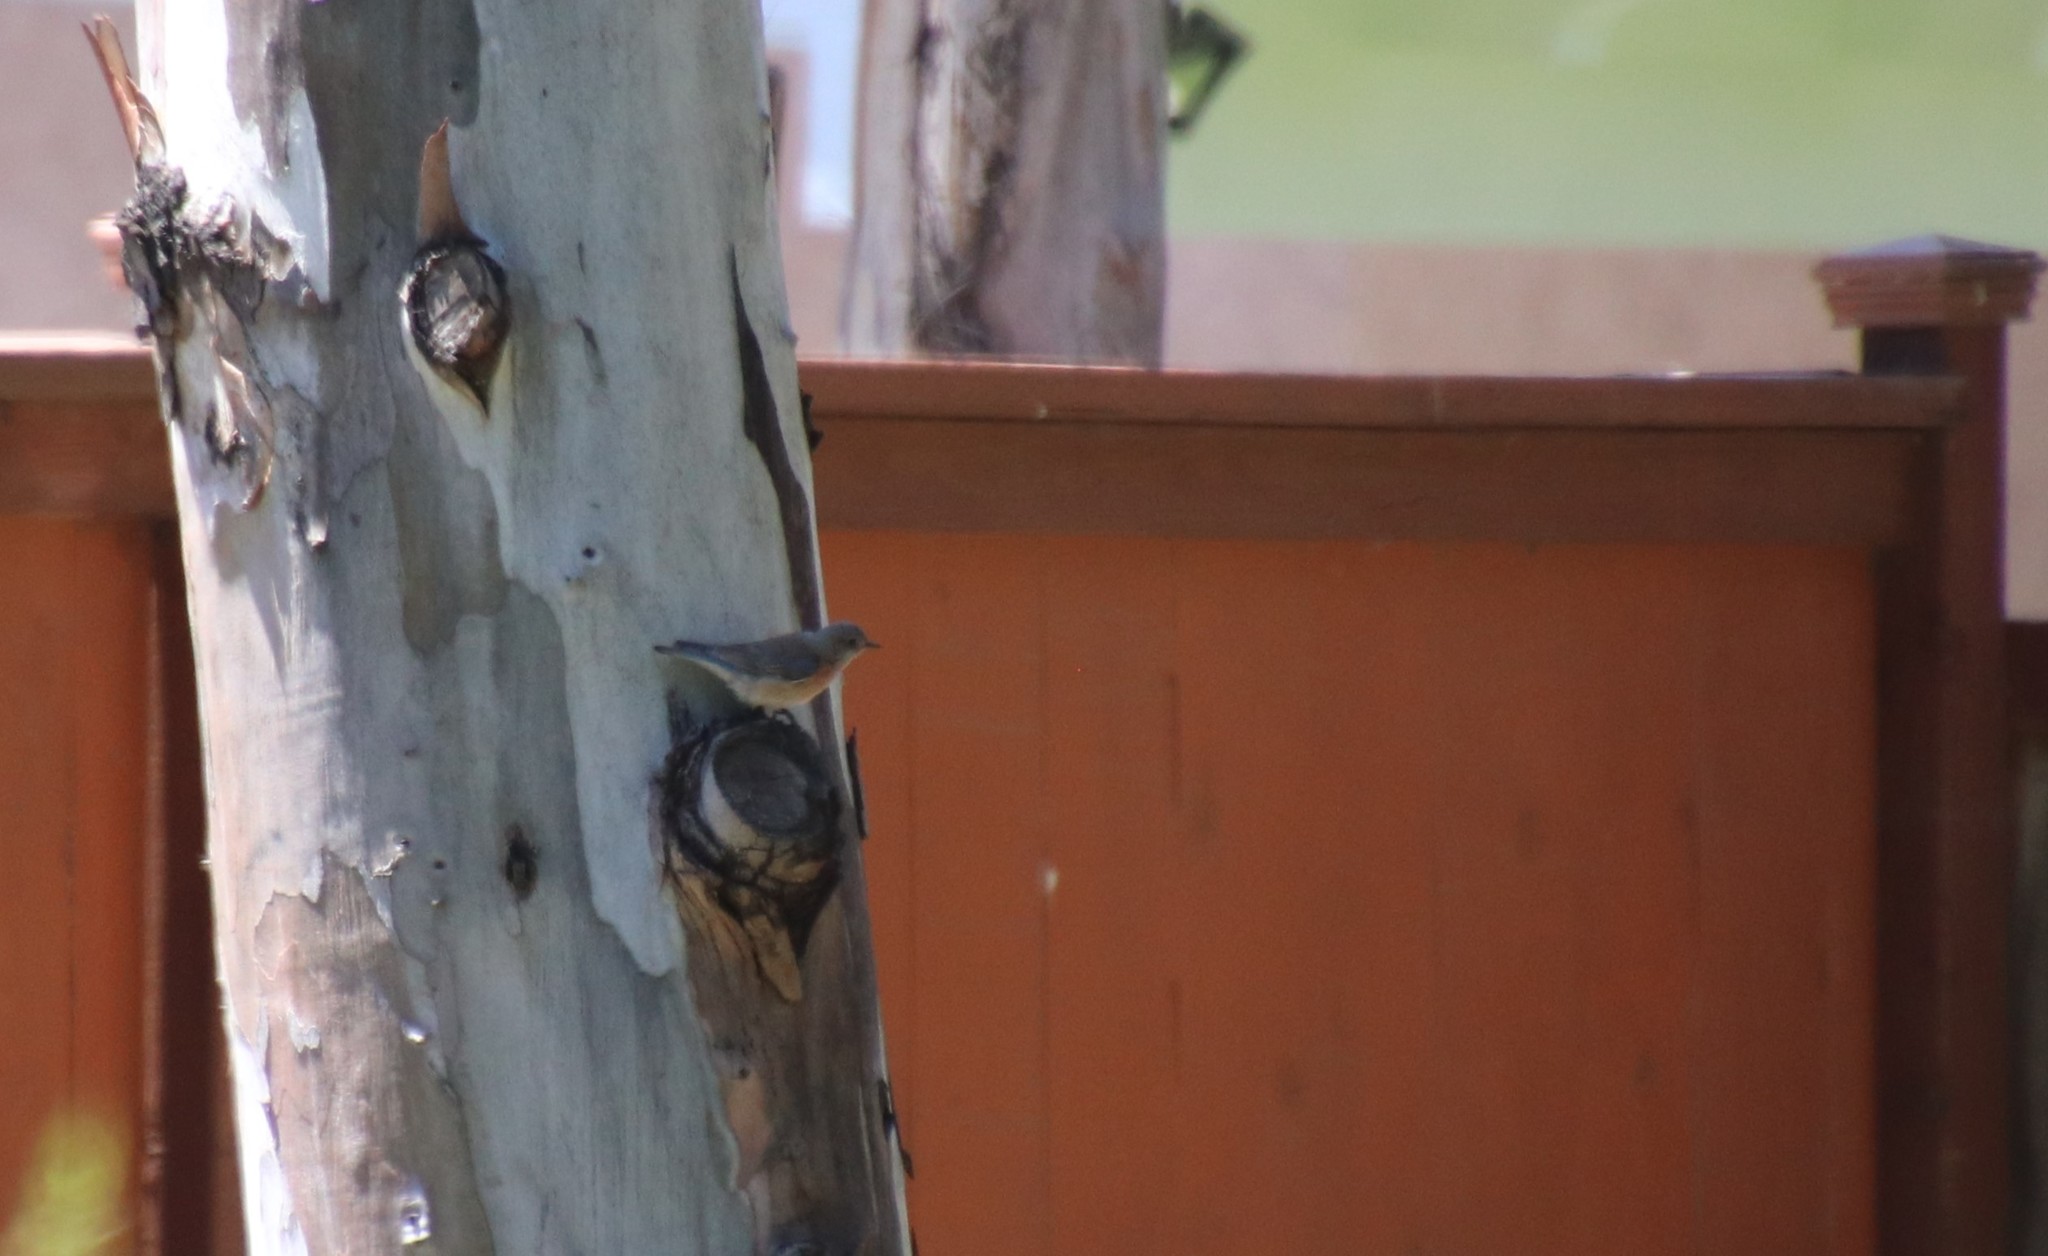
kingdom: Animalia
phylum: Chordata
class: Aves
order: Passeriformes
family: Turdidae
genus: Sialia
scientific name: Sialia mexicana
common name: Western bluebird
